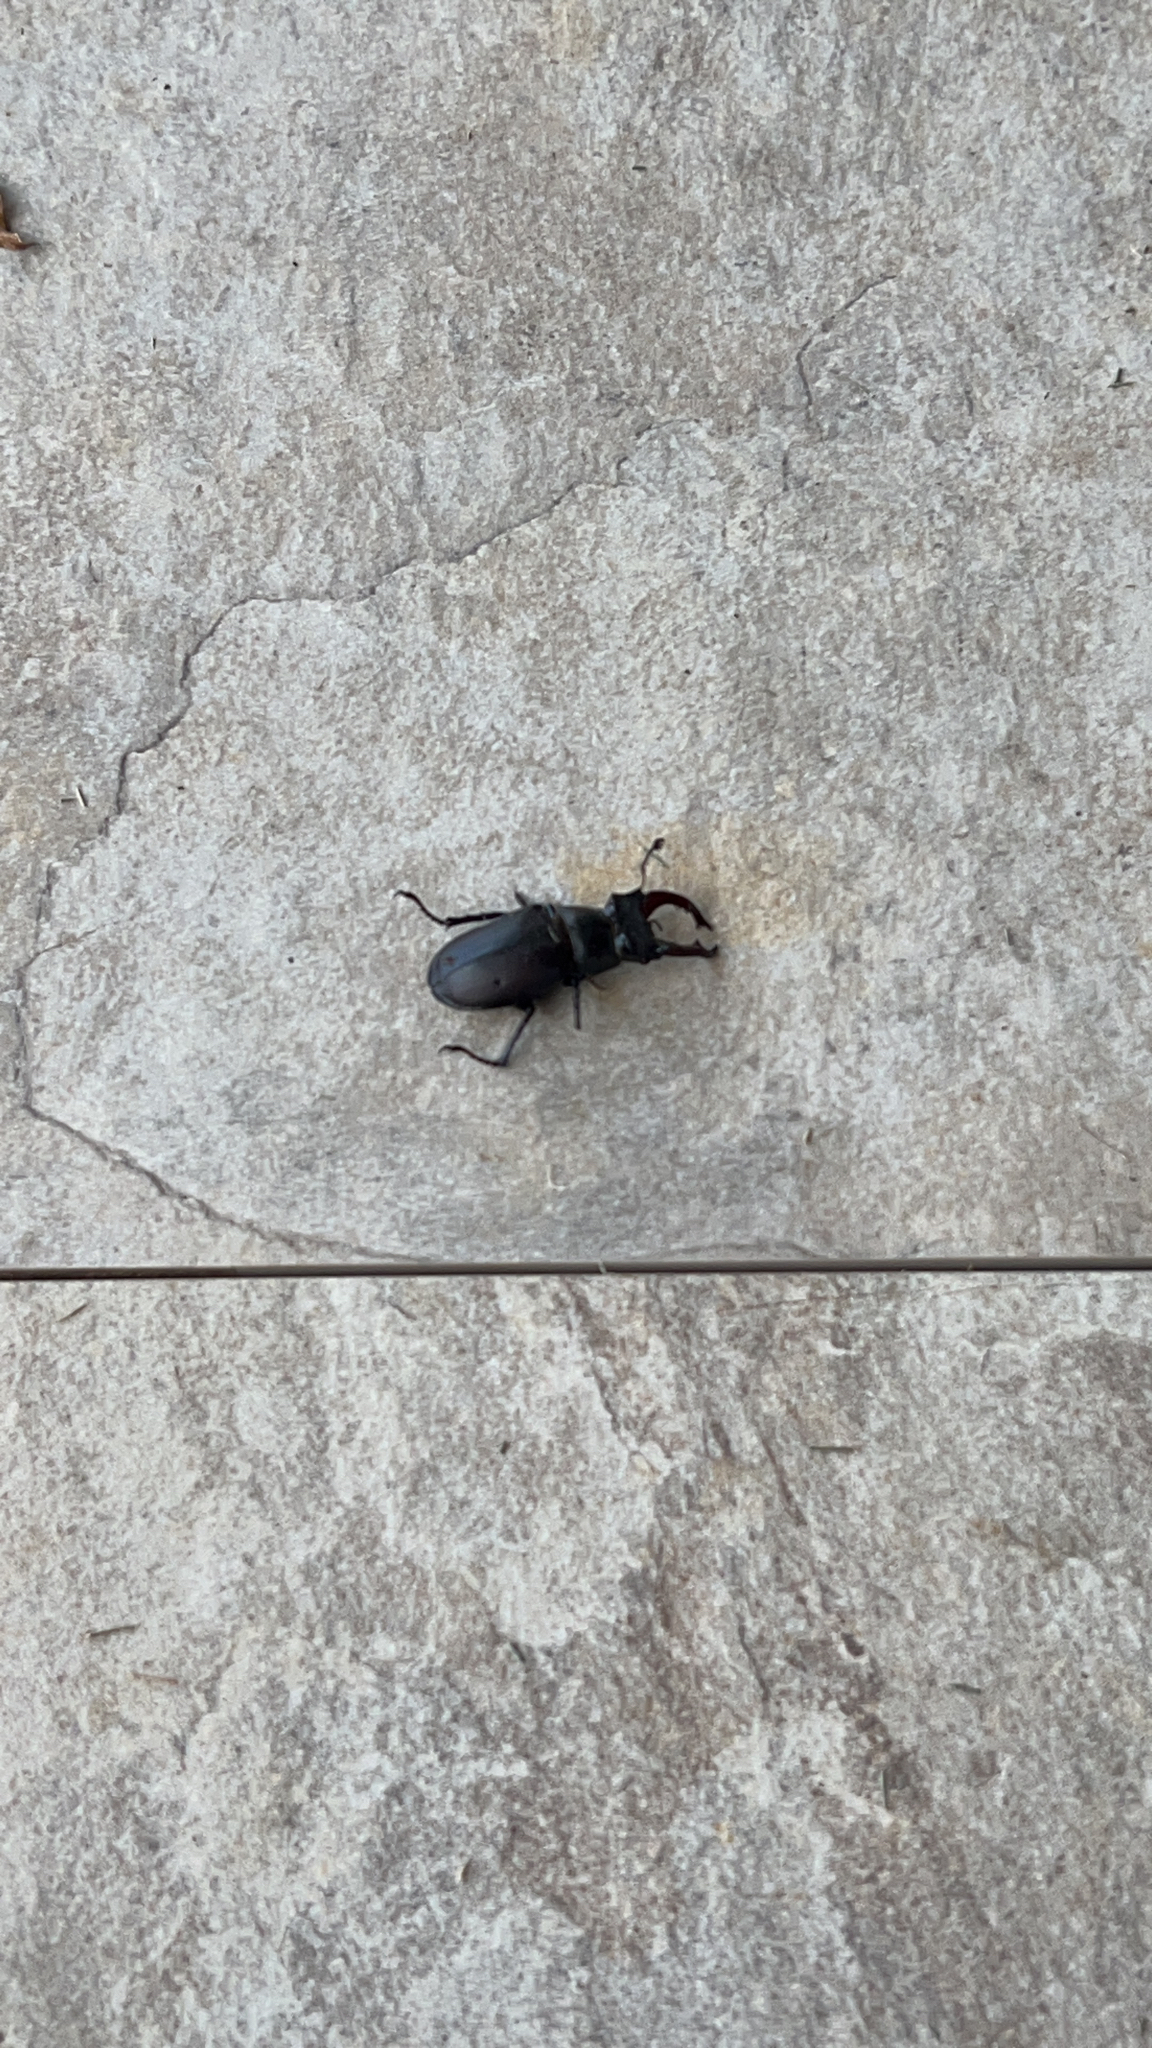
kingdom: Animalia
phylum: Arthropoda
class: Insecta
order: Coleoptera
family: Lucanidae
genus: Lucanus
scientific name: Lucanus cervus
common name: Stag beetle
